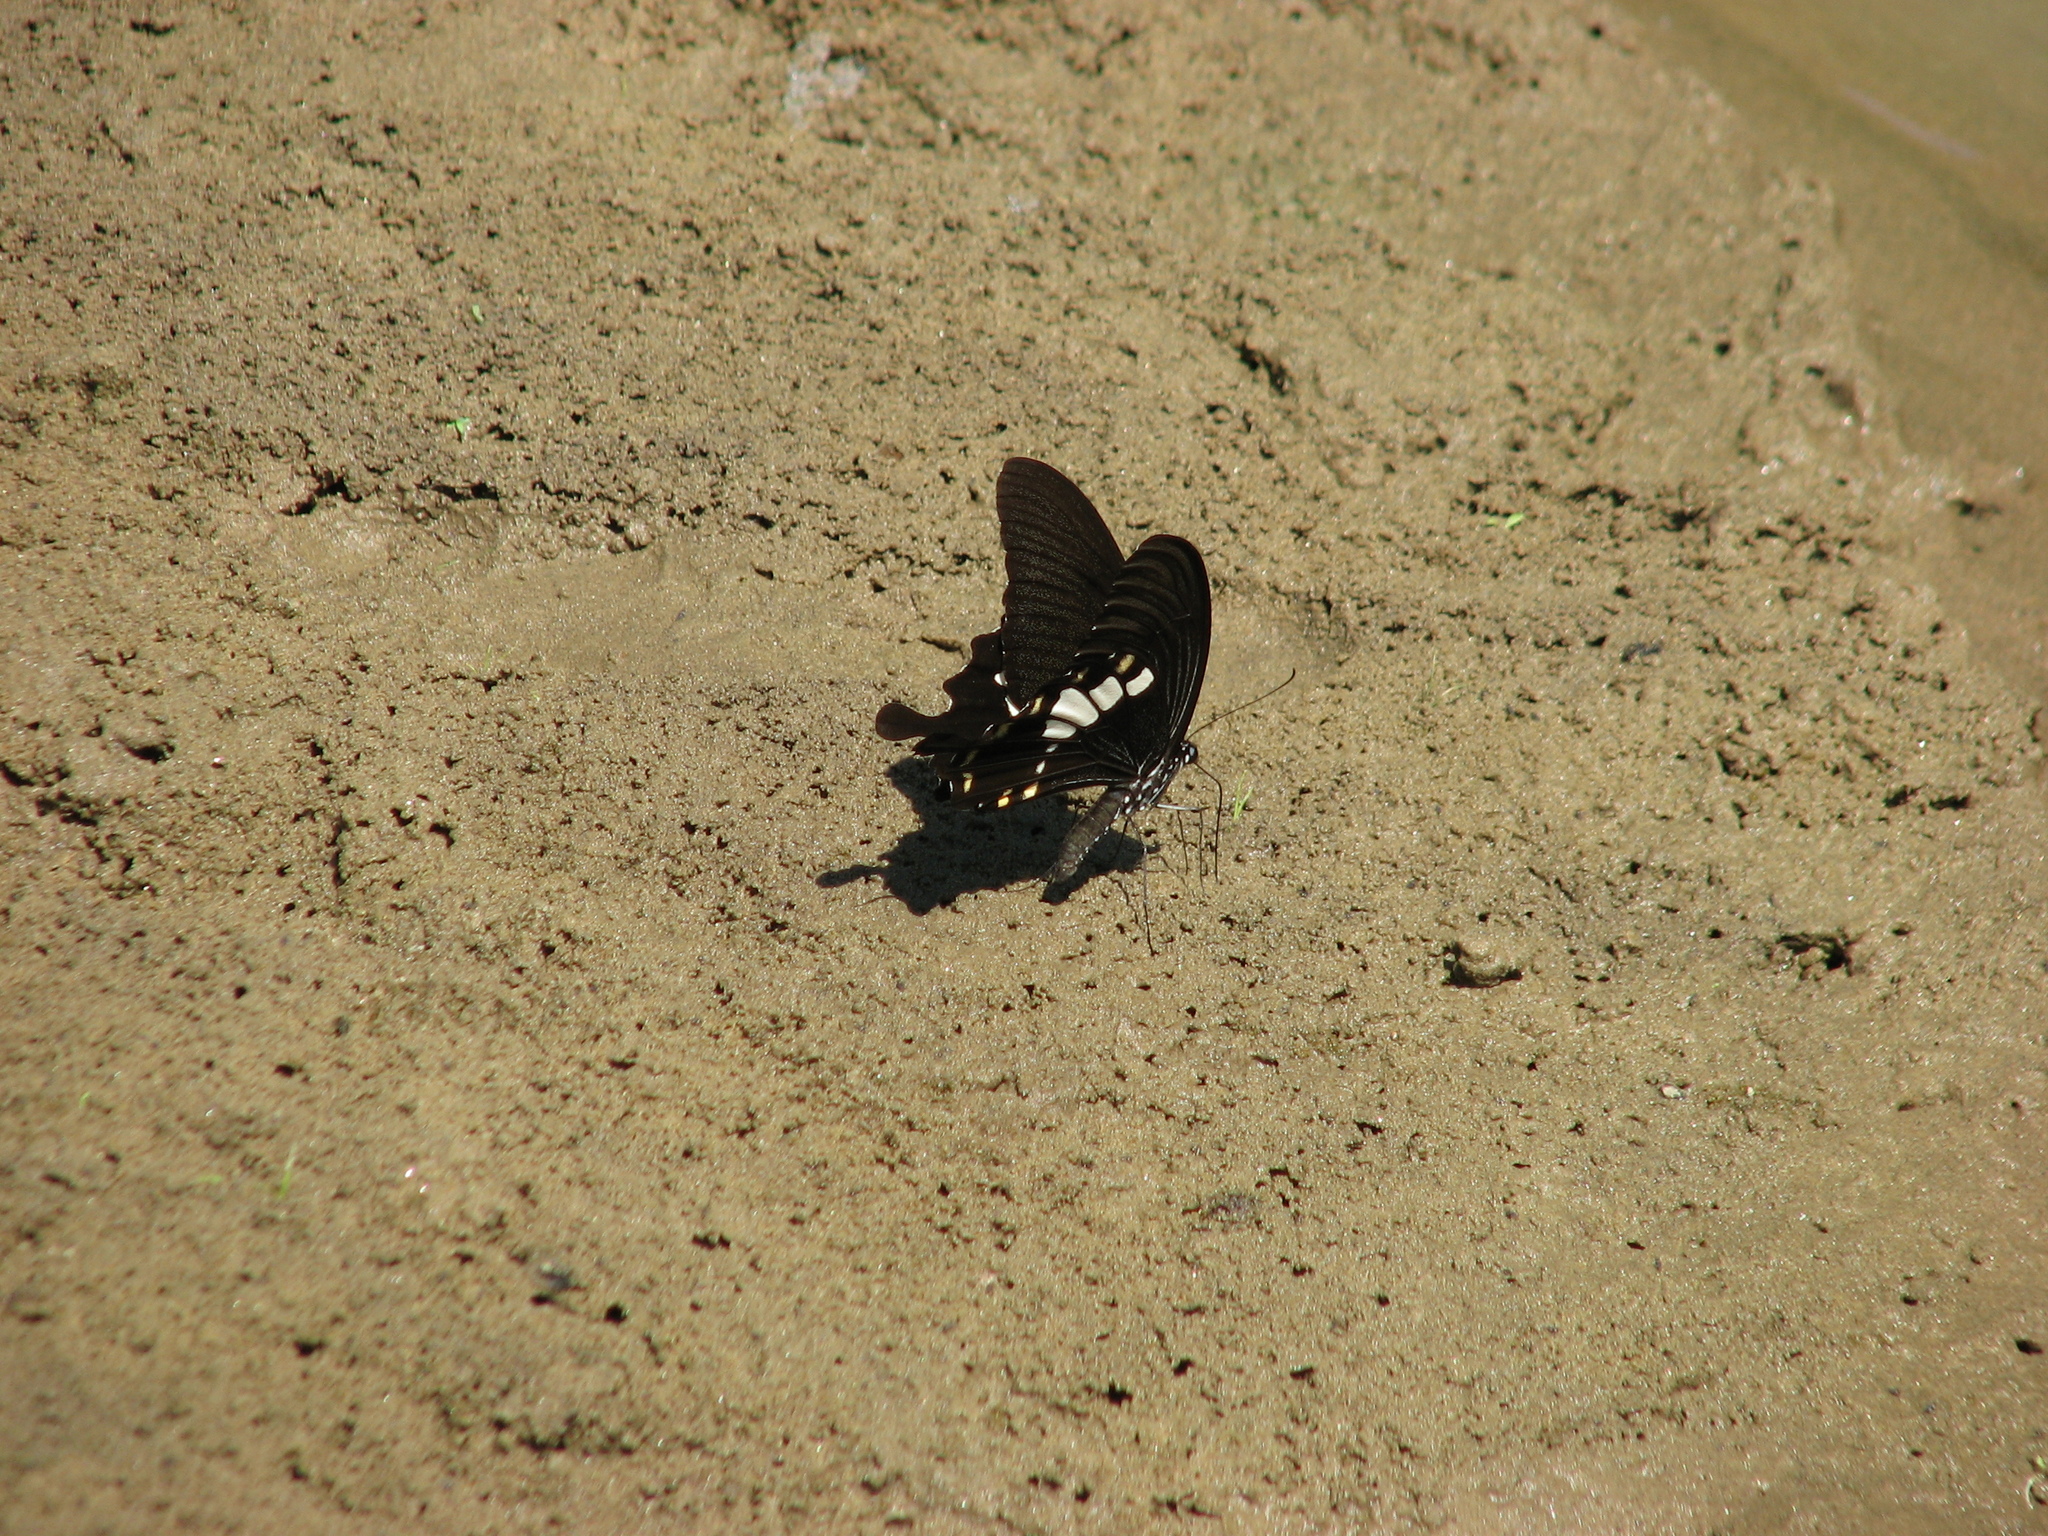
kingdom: Animalia
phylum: Arthropoda
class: Insecta
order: Lepidoptera
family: Papilionidae
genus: Papilio
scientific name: Papilio nephelus
